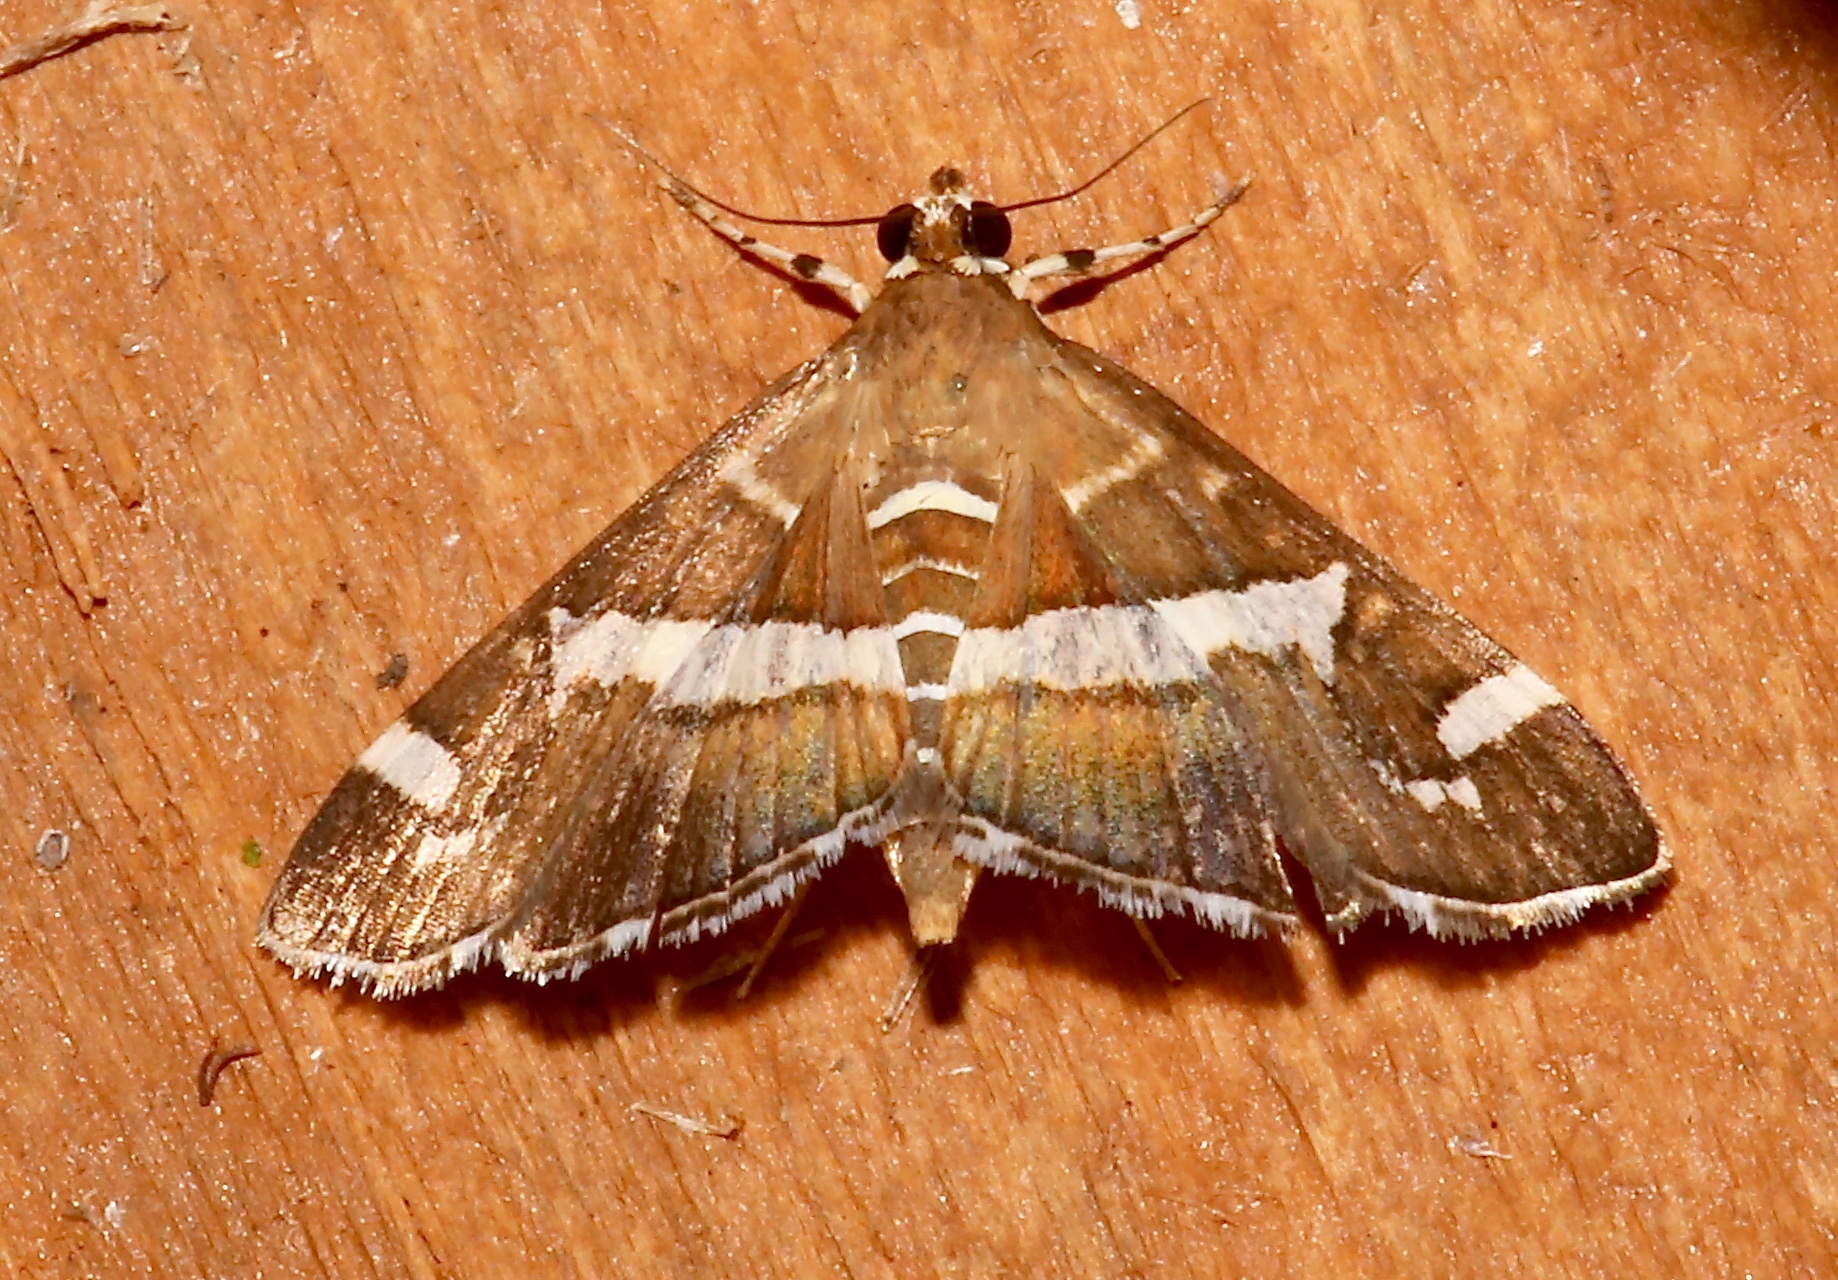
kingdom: Animalia
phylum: Arthropoda
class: Insecta
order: Lepidoptera
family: Crambidae
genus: Spoladea
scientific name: Spoladea recurvalis
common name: Beet webworm moth
